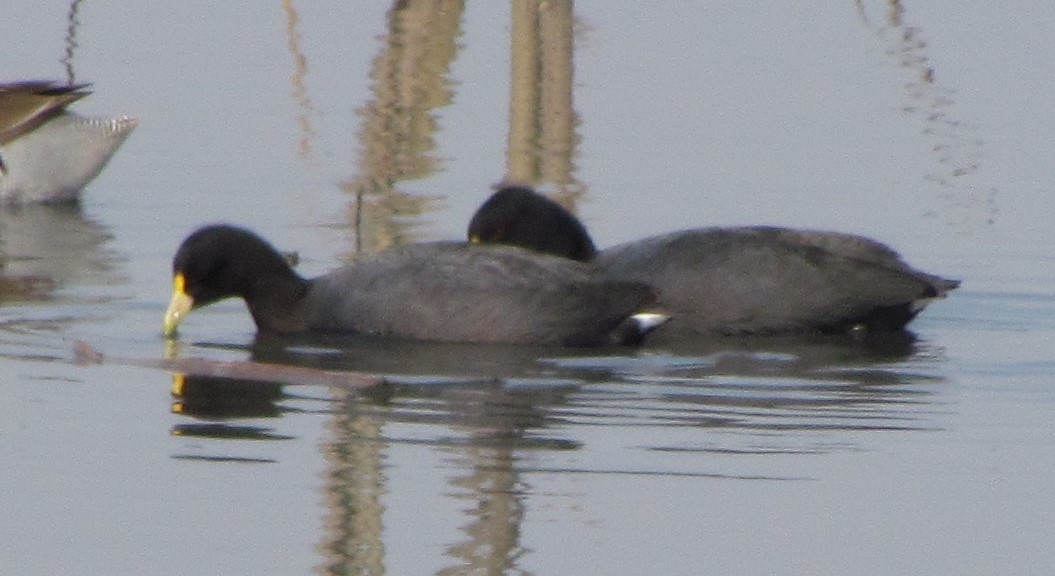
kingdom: Animalia
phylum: Chordata
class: Aves
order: Gruiformes
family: Rallidae
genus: Fulica
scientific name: Fulica leucoptera
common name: White-winged coot
